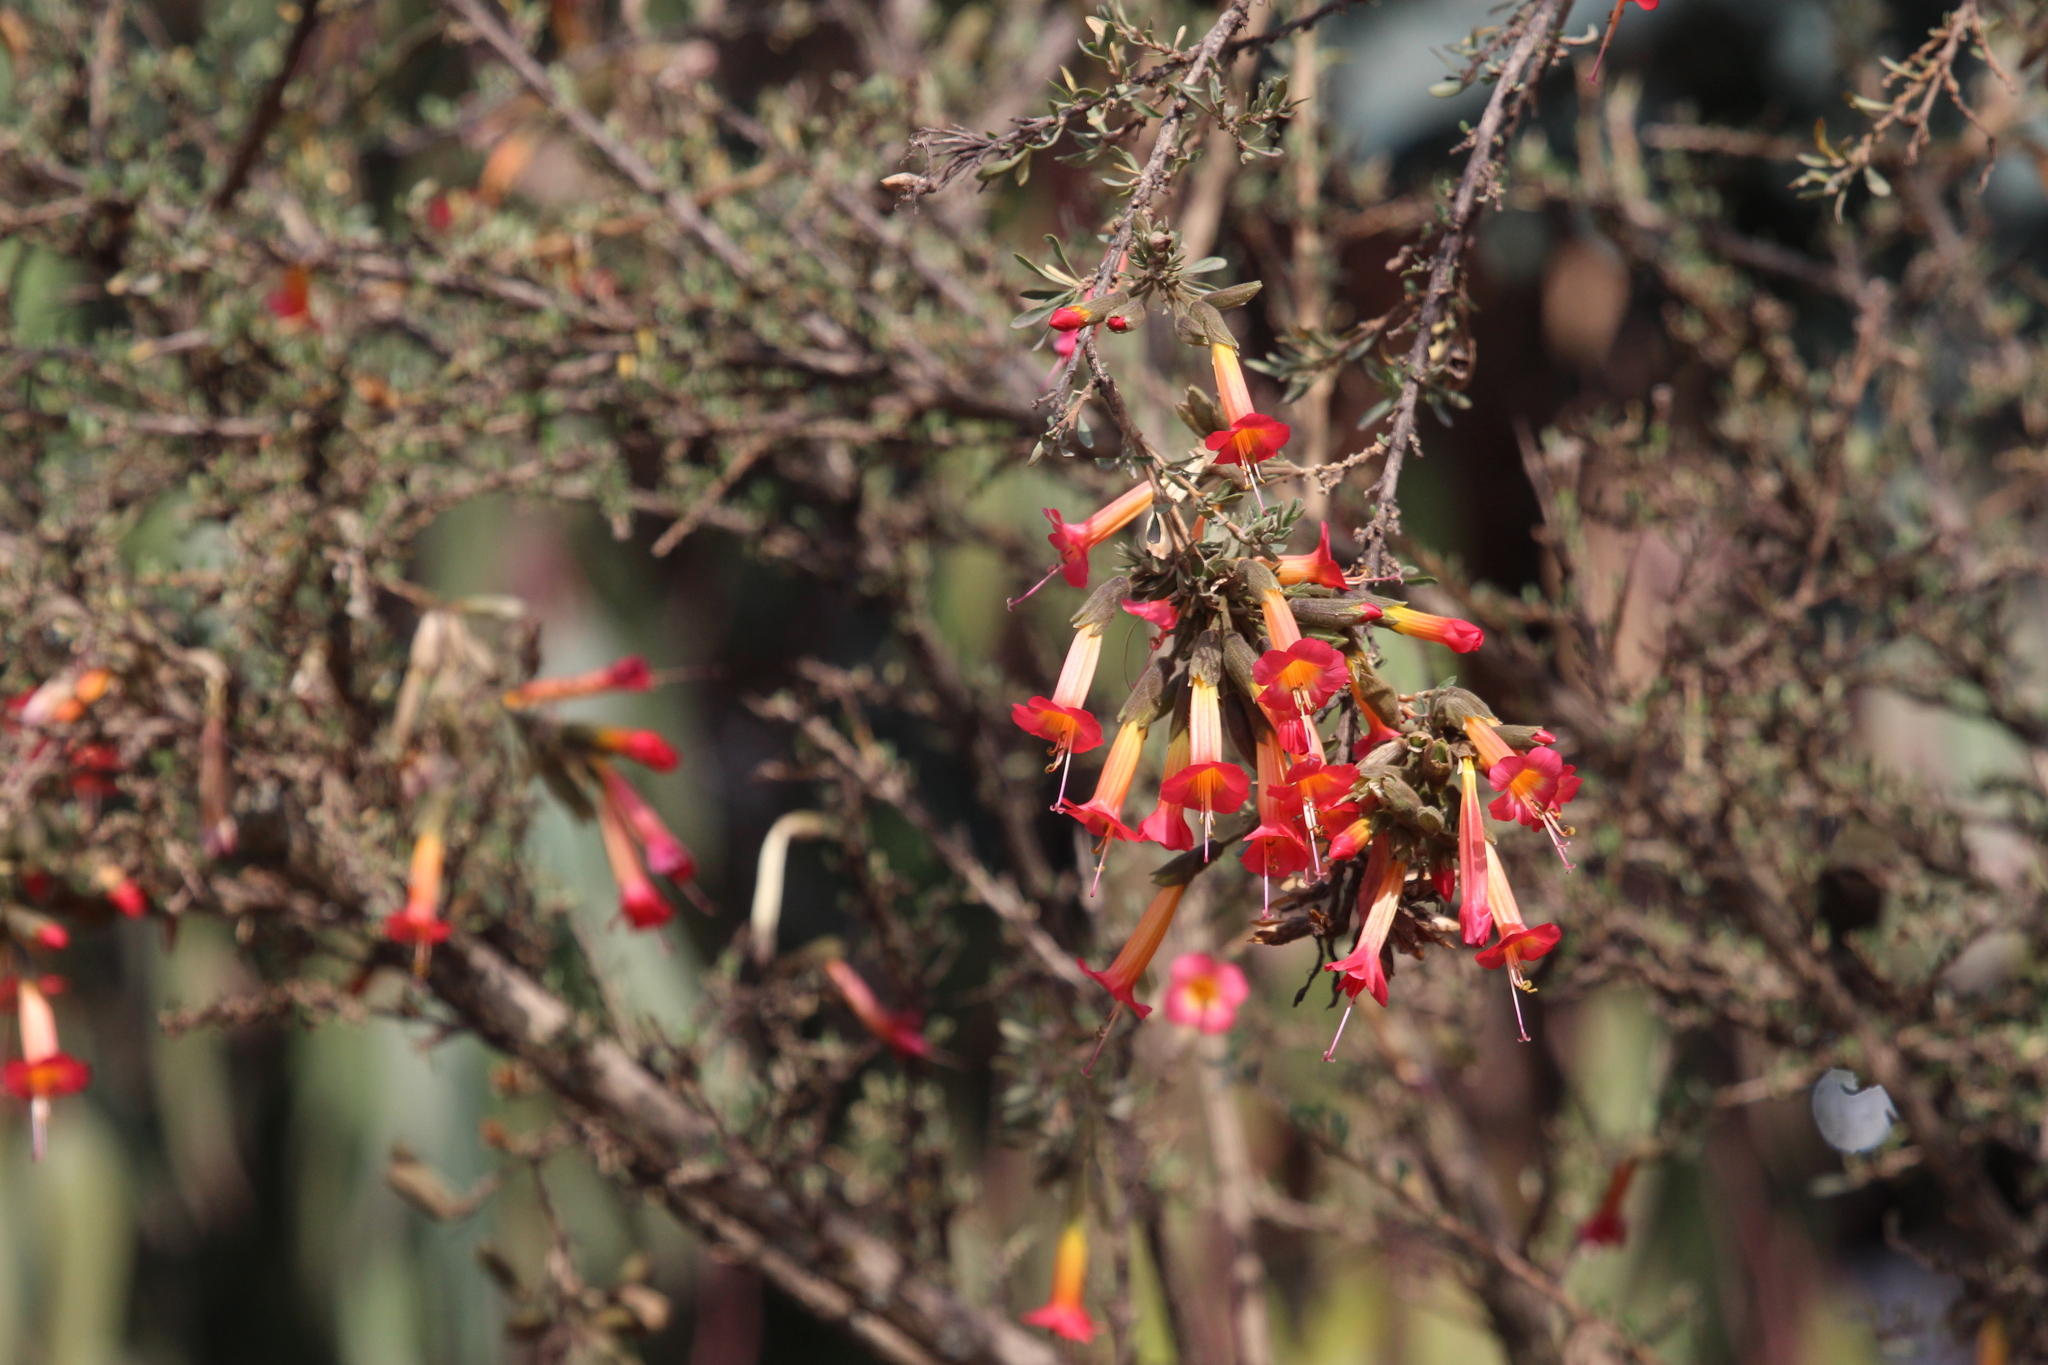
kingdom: Plantae
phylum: Tracheophyta
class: Magnoliopsida
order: Ericales
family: Polemoniaceae
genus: Cantua
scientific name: Cantua bicolor
